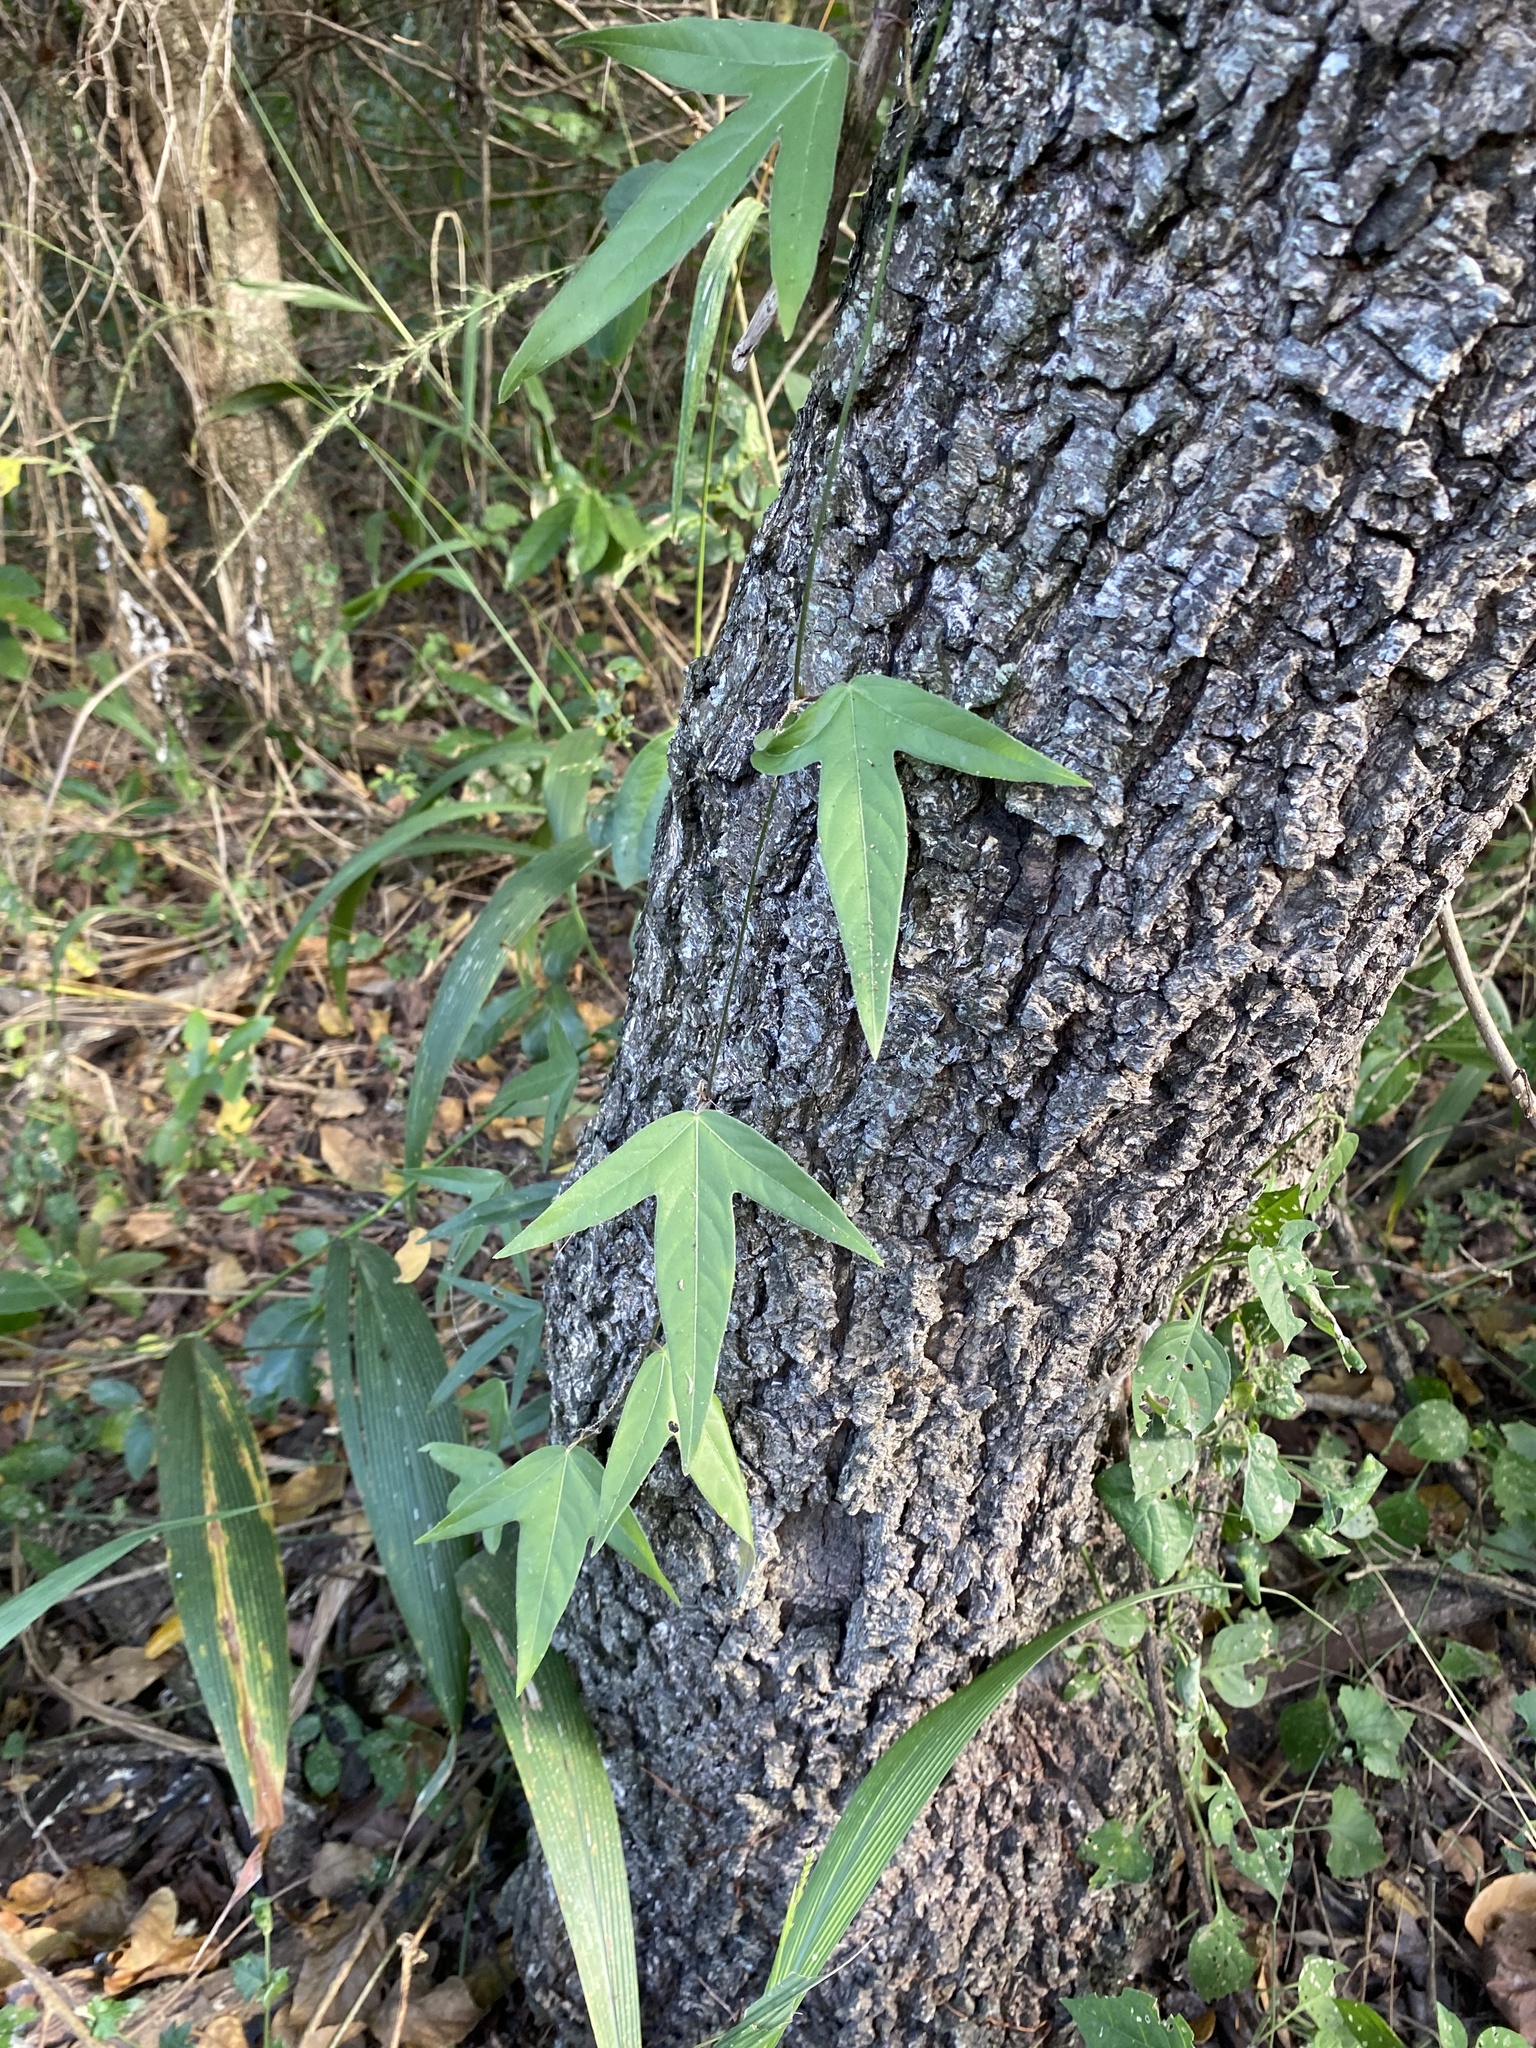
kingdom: Plantae
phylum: Tracheophyta
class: Magnoliopsida
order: Malpighiales
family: Passifloraceae
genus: Passiflora
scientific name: Passiflora suberosa
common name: Wild passionfruit
